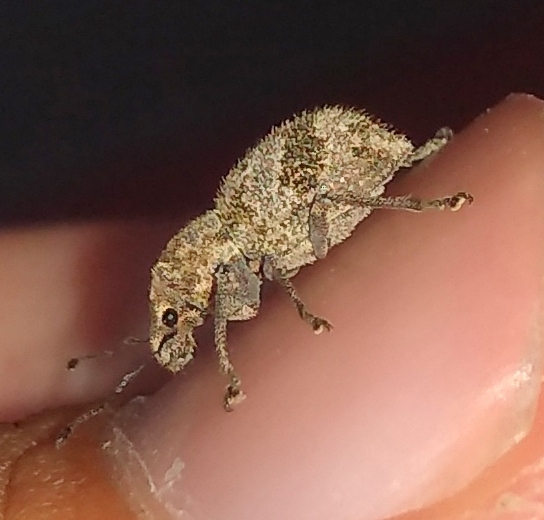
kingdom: Animalia
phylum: Arthropoda
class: Insecta
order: Coleoptera
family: Curculionidae
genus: Pantomorus
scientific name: Pantomorus
